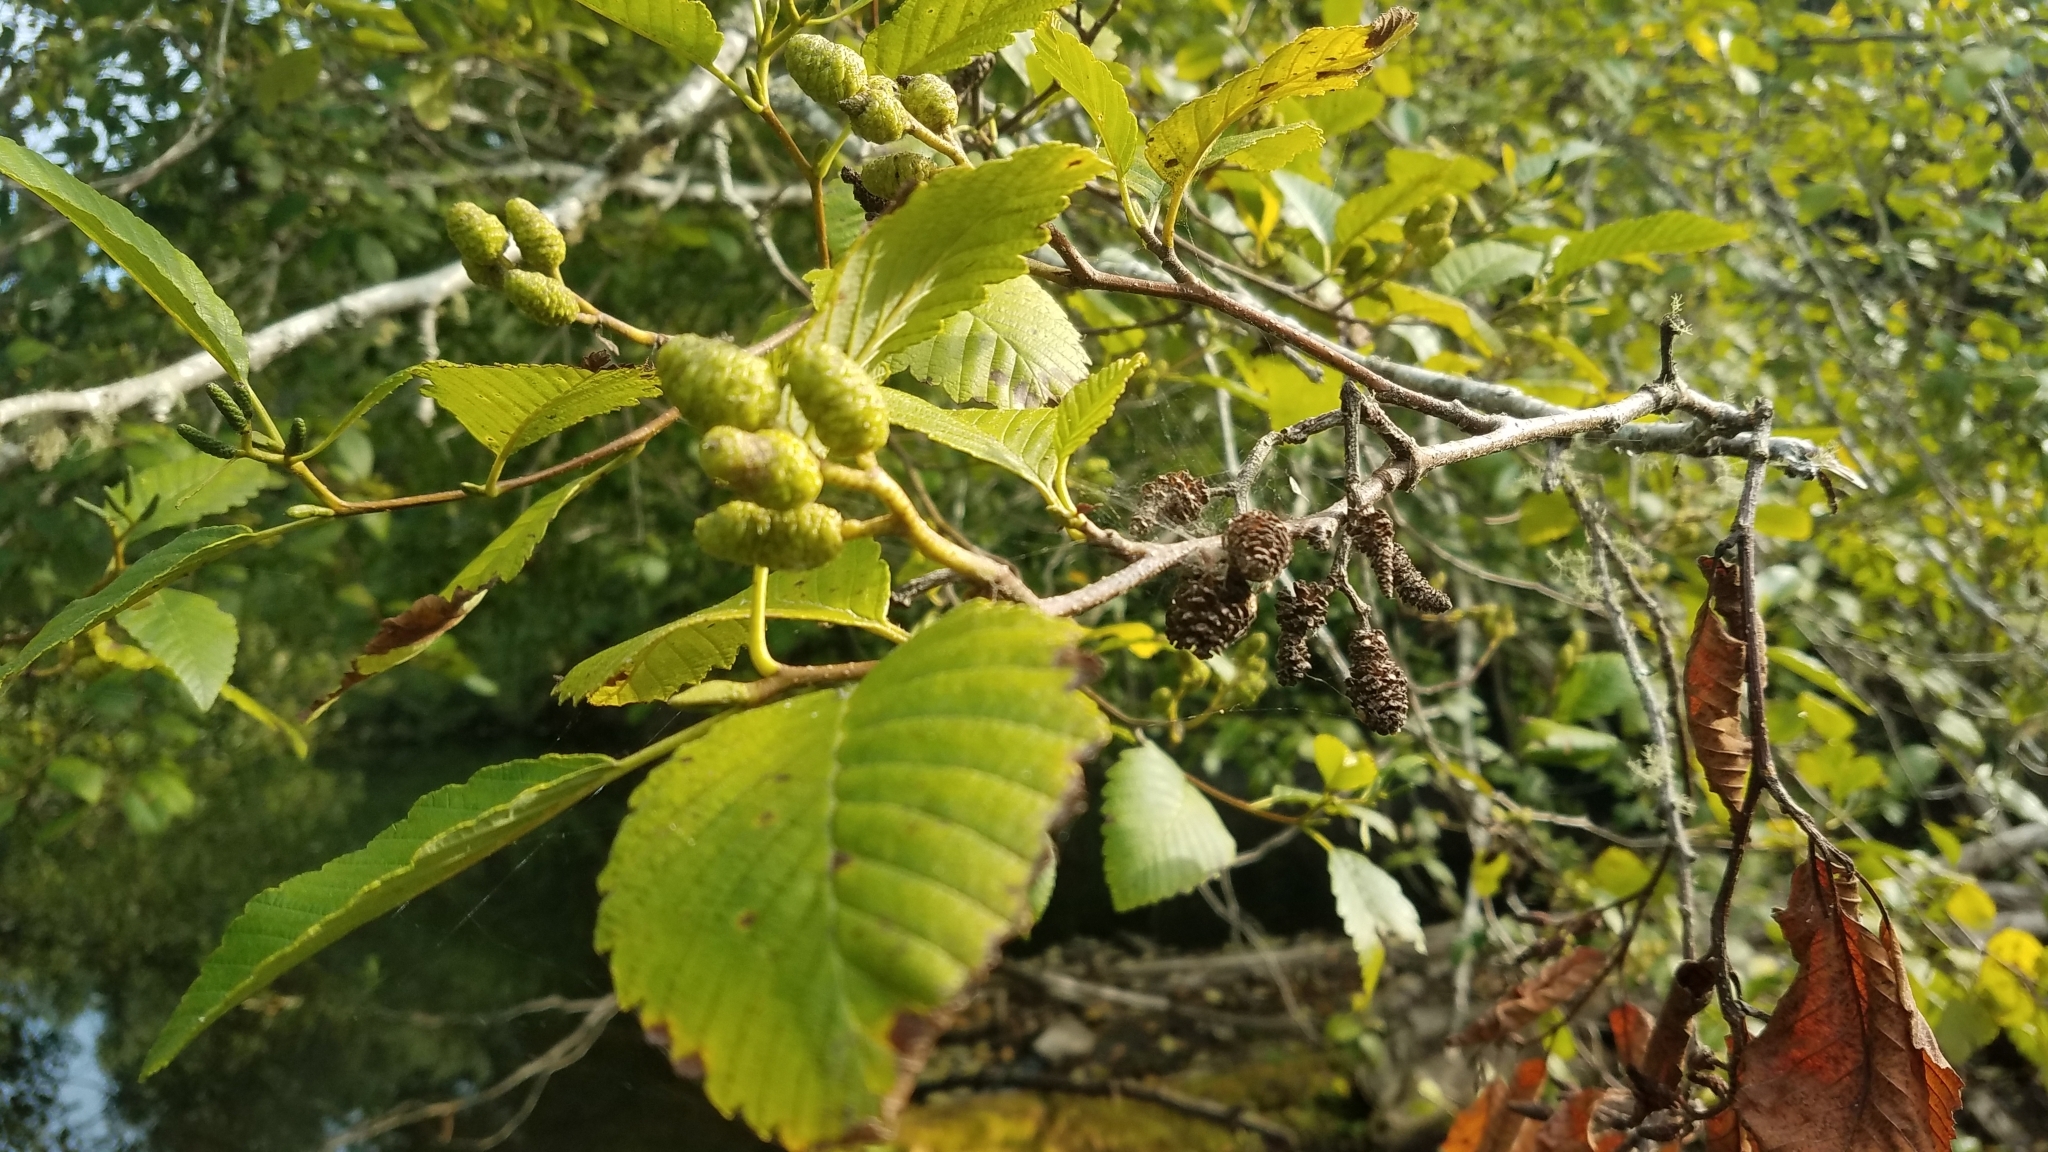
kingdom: Plantae
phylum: Tracheophyta
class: Magnoliopsida
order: Fagales
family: Betulaceae
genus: Alnus
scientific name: Alnus rubra
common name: Red alder
